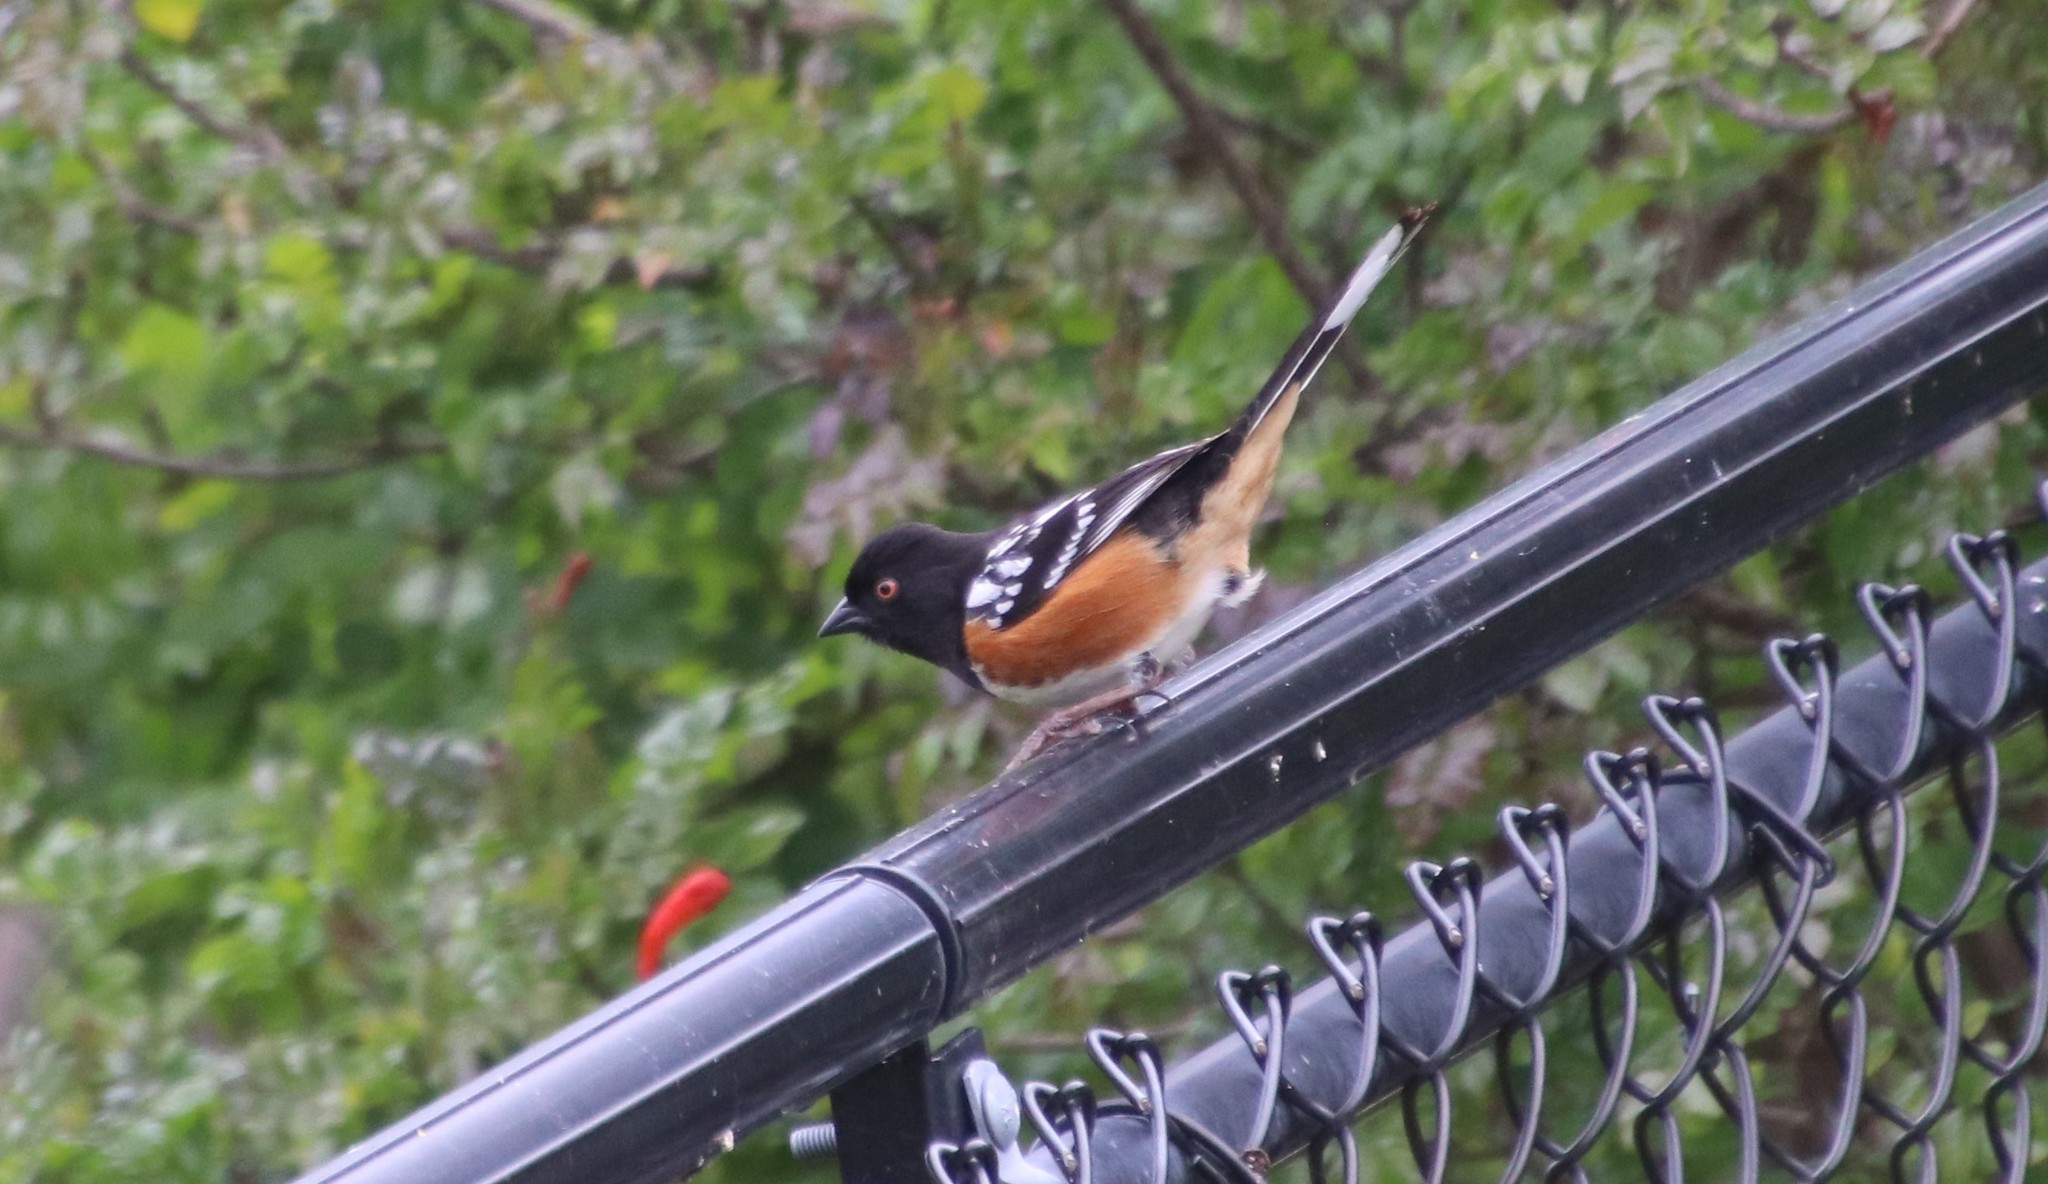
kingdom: Animalia
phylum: Chordata
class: Aves
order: Passeriformes
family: Passerellidae
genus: Pipilo
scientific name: Pipilo maculatus
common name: Spotted towhee
